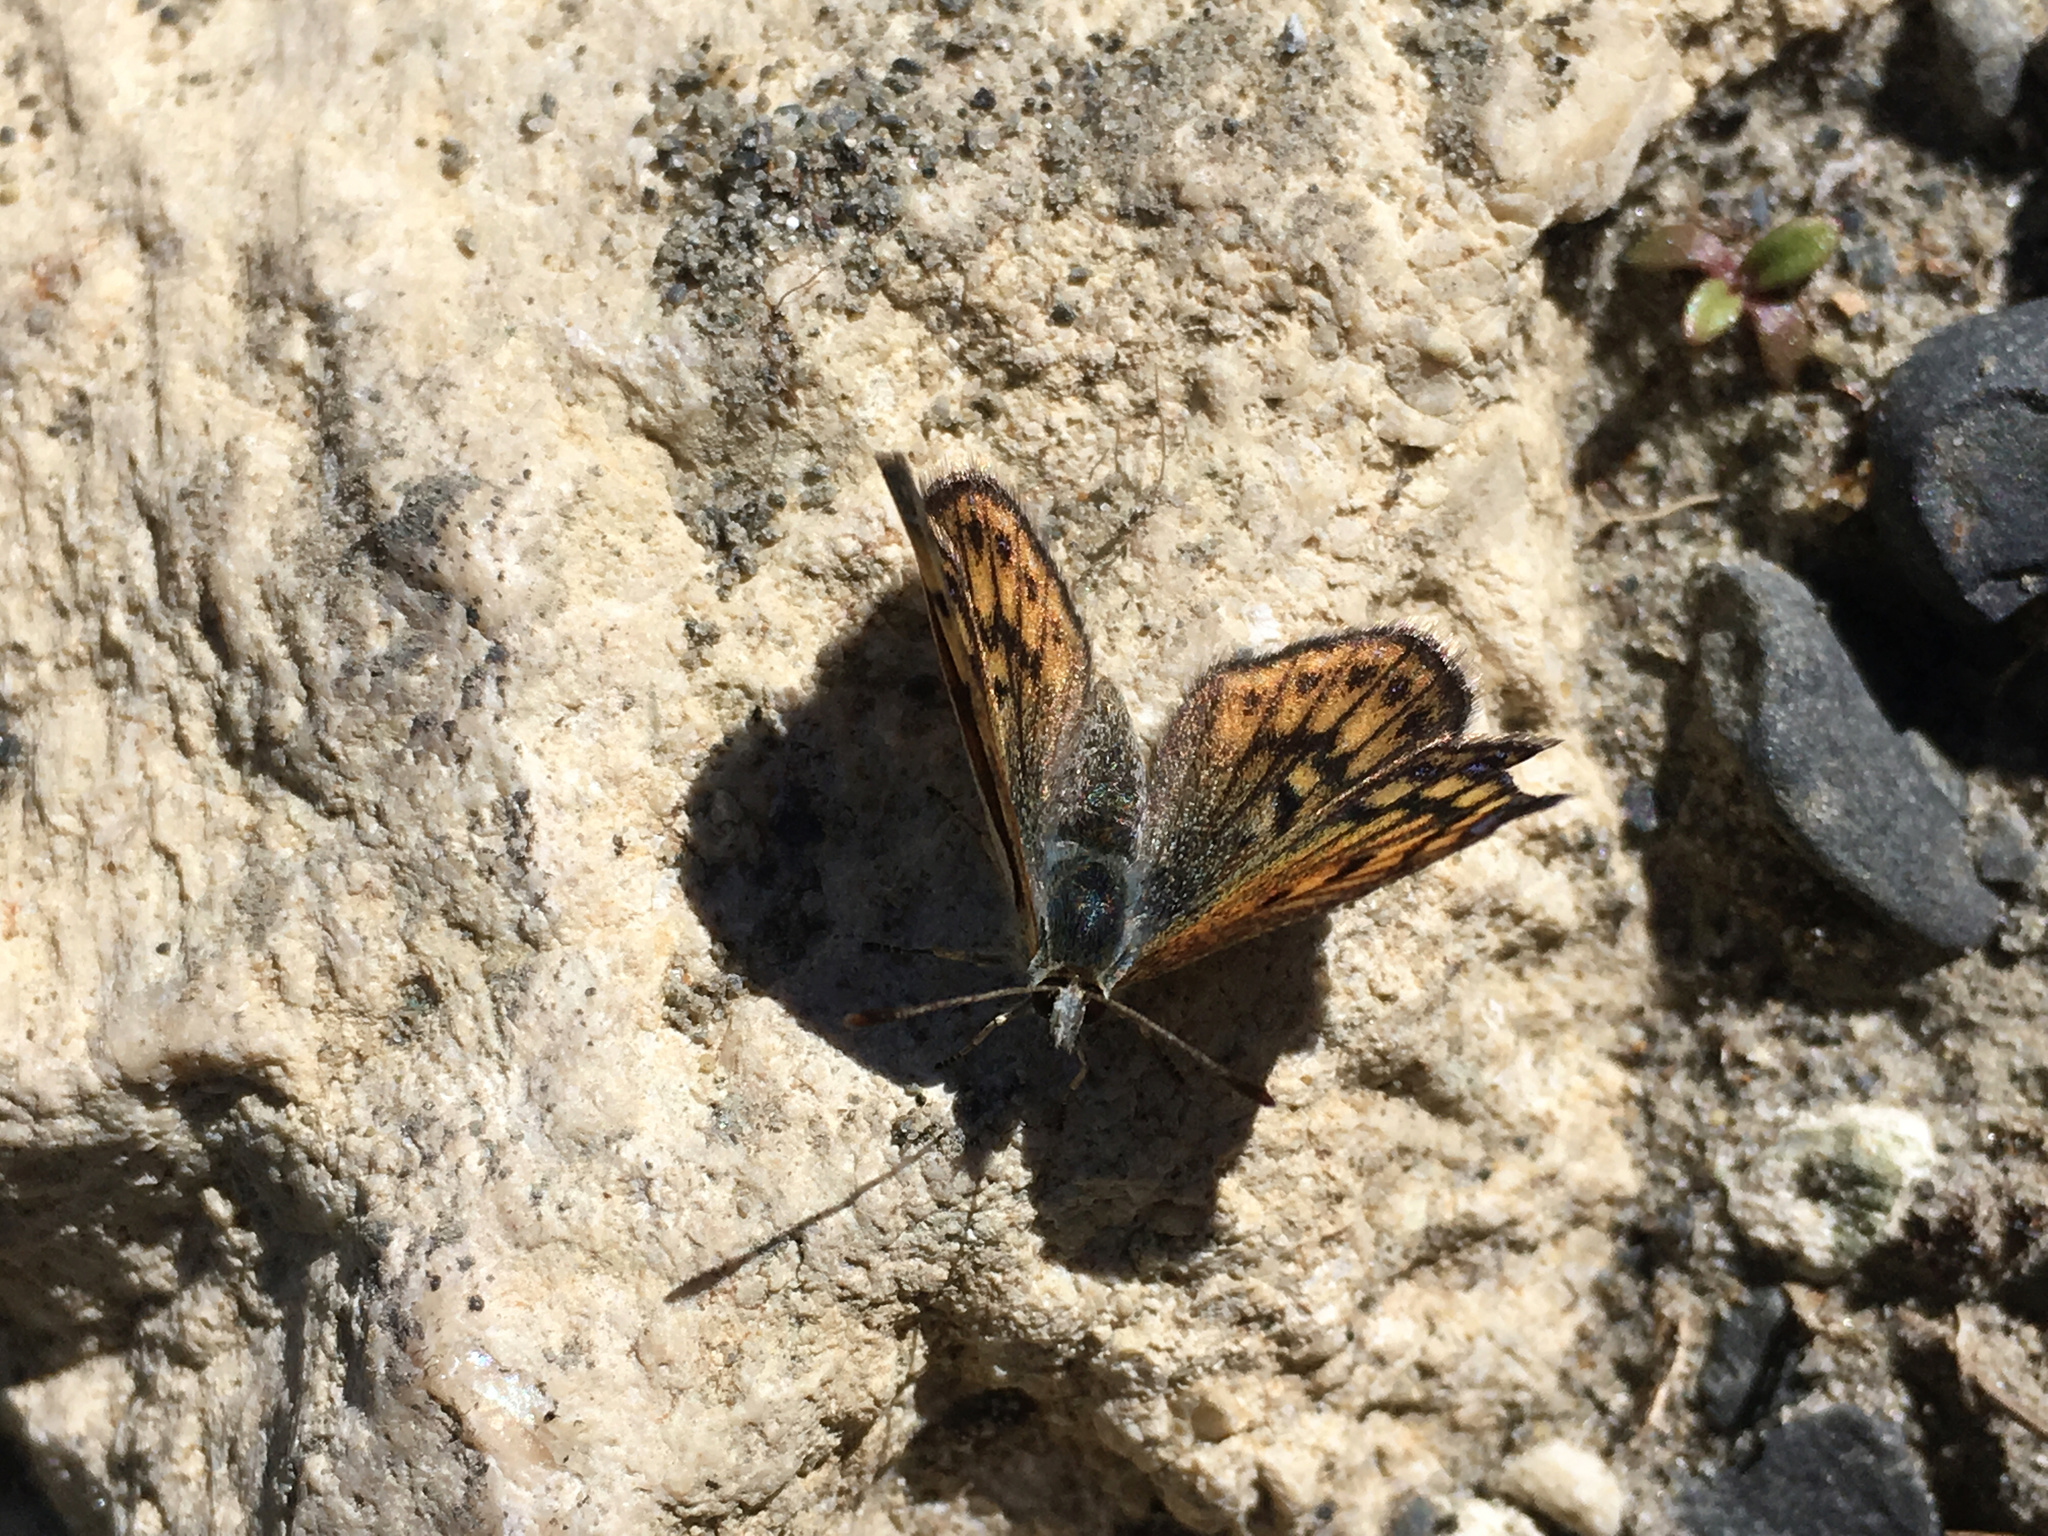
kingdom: Animalia
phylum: Arthropoda
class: Insecta
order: Lepidoptera
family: Lycaenidae
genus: Lycaena
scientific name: Lycaena boldenarum
